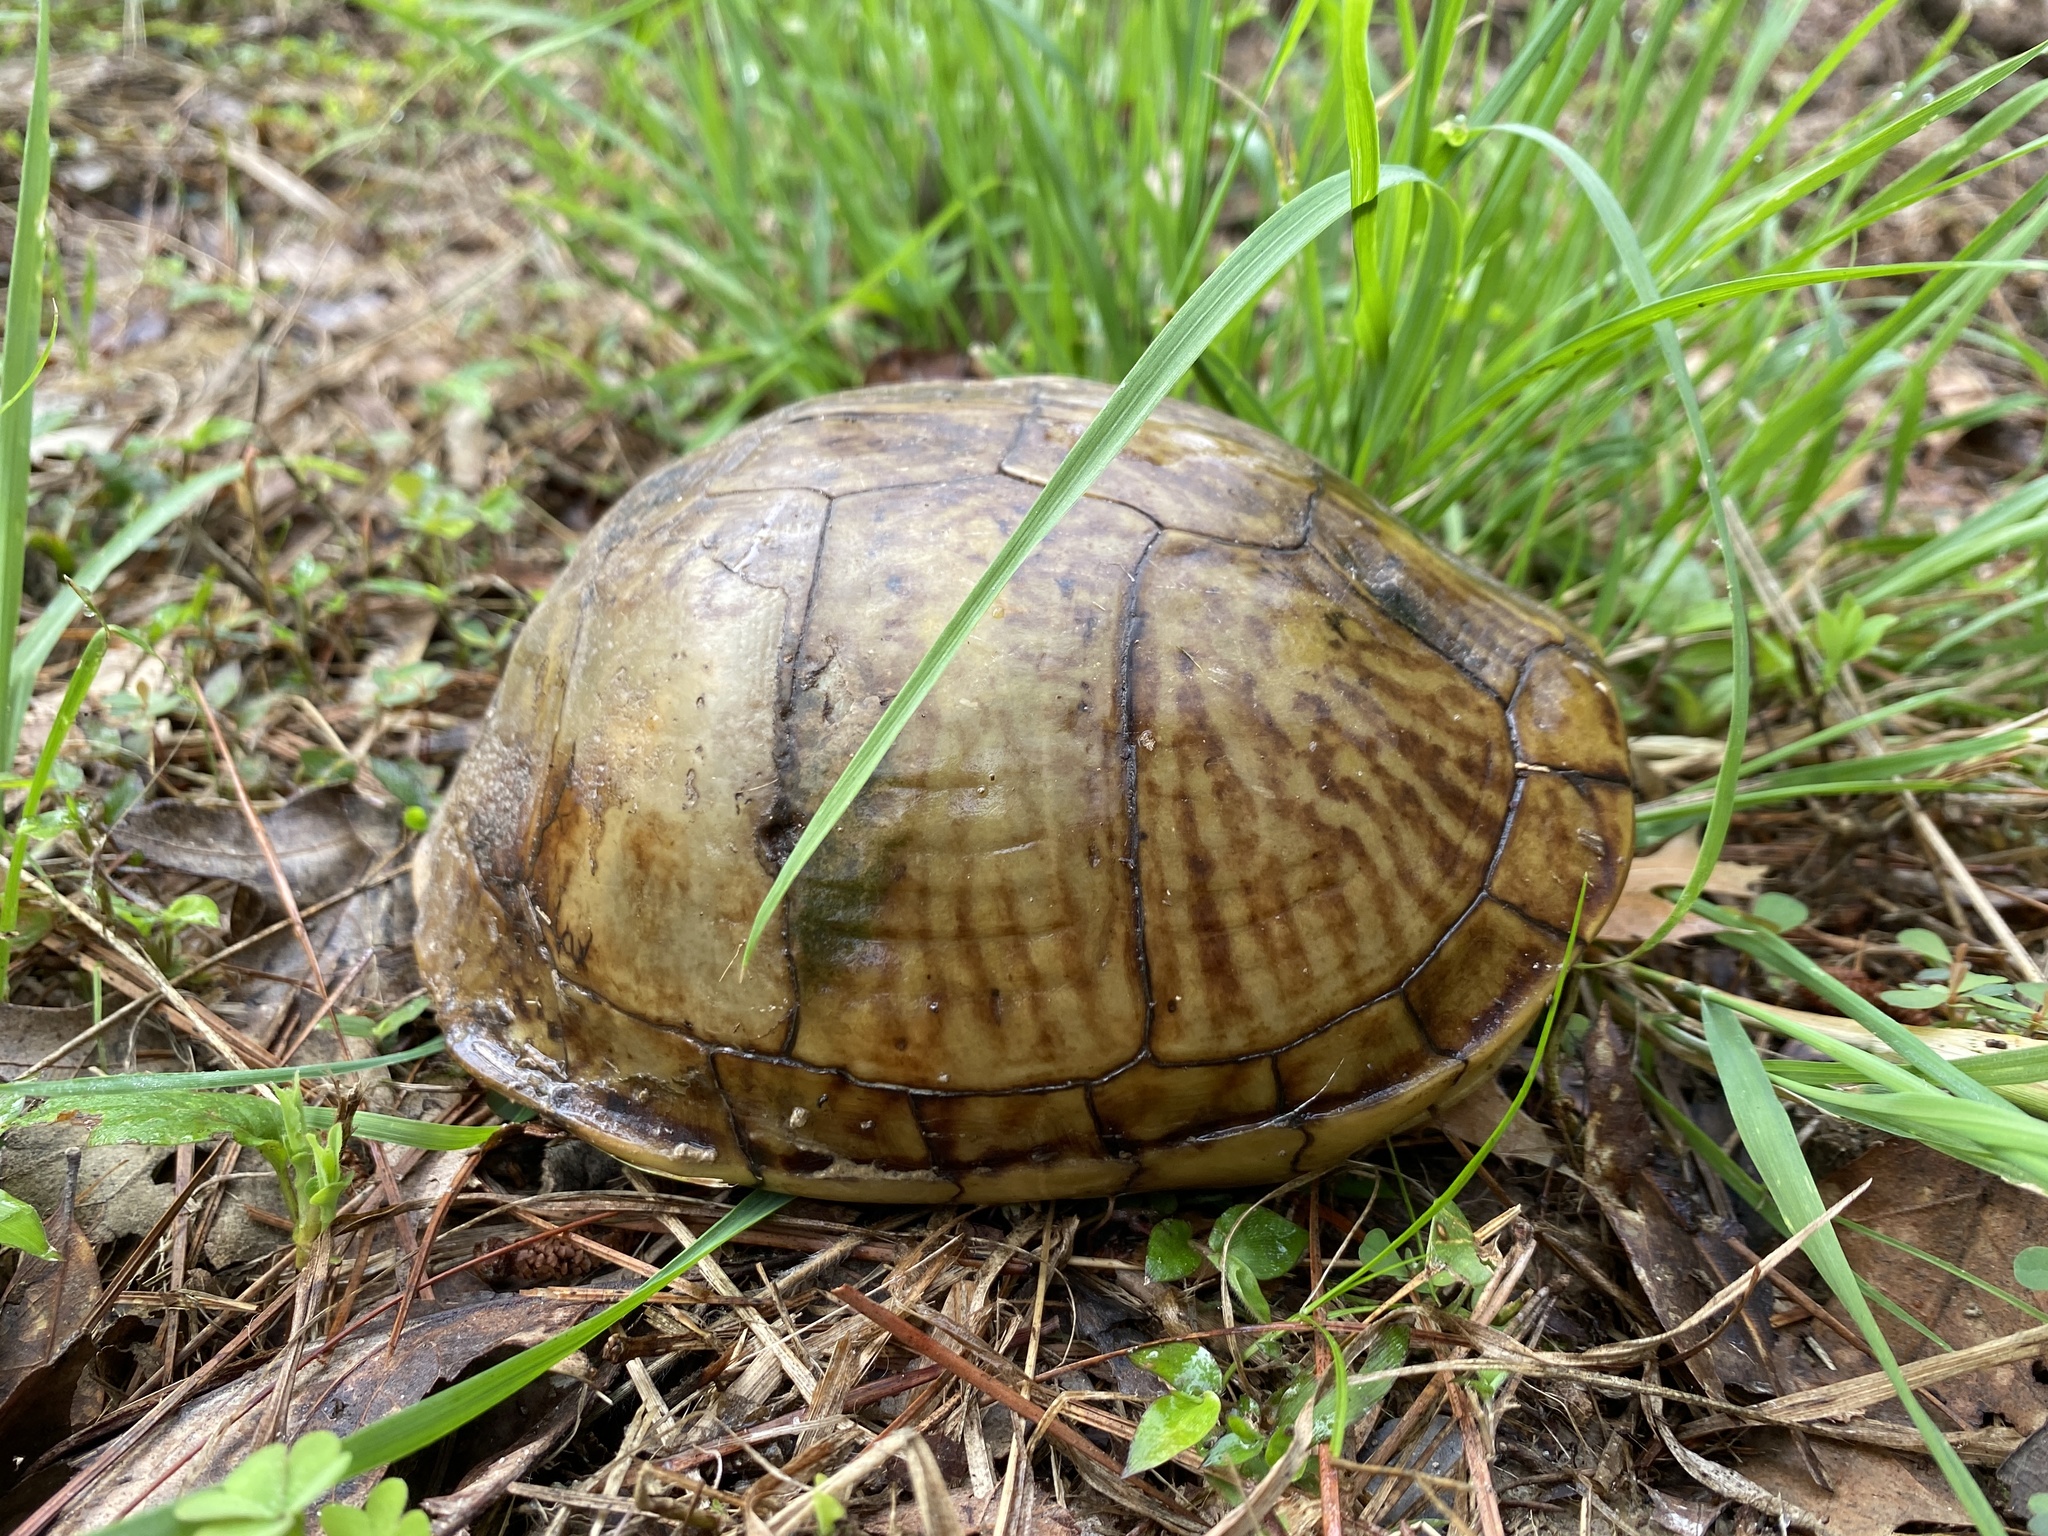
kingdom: Animalia
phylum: Chordata
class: Testudines
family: Emydidae
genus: Terrapene
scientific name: Terrapene carolina
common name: Common box turtle
